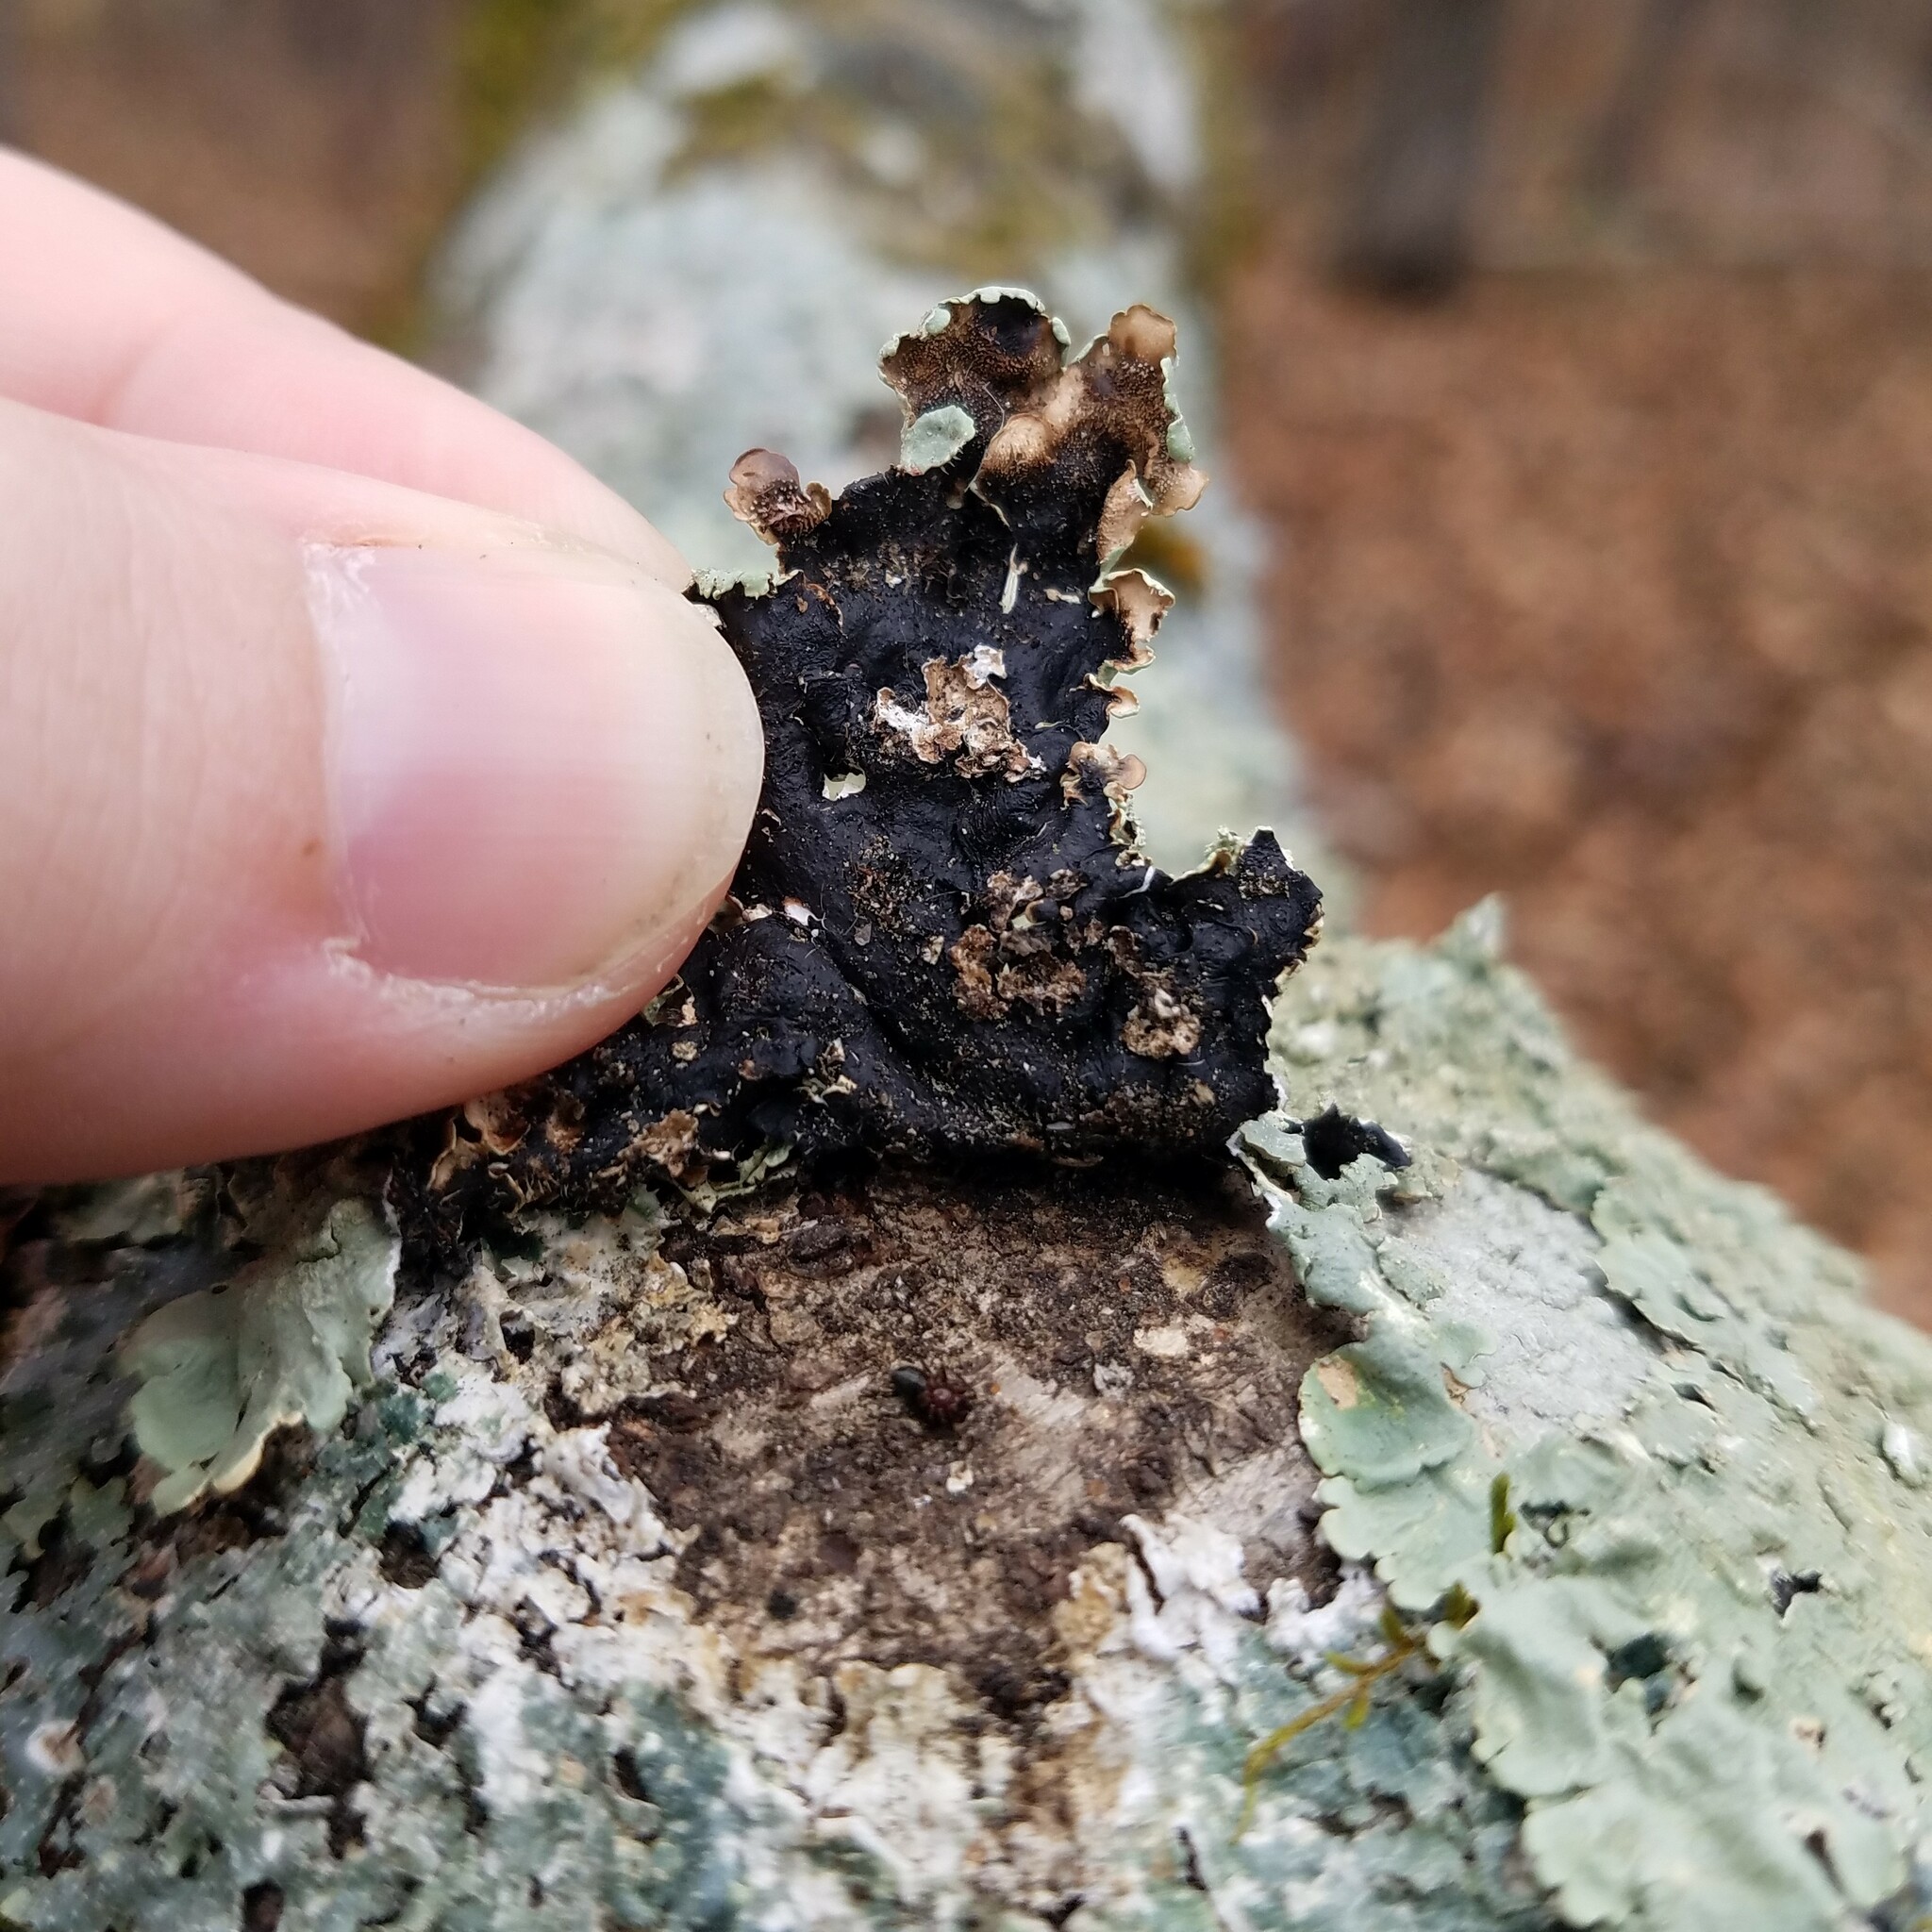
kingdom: Fungi
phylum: Ascomycota
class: Lecanoromycetes
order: Lecanorales
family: Parmeliaceae
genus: Flavoparmelia
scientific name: Flavoparmelia caperata
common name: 40-mile per hour lichen
